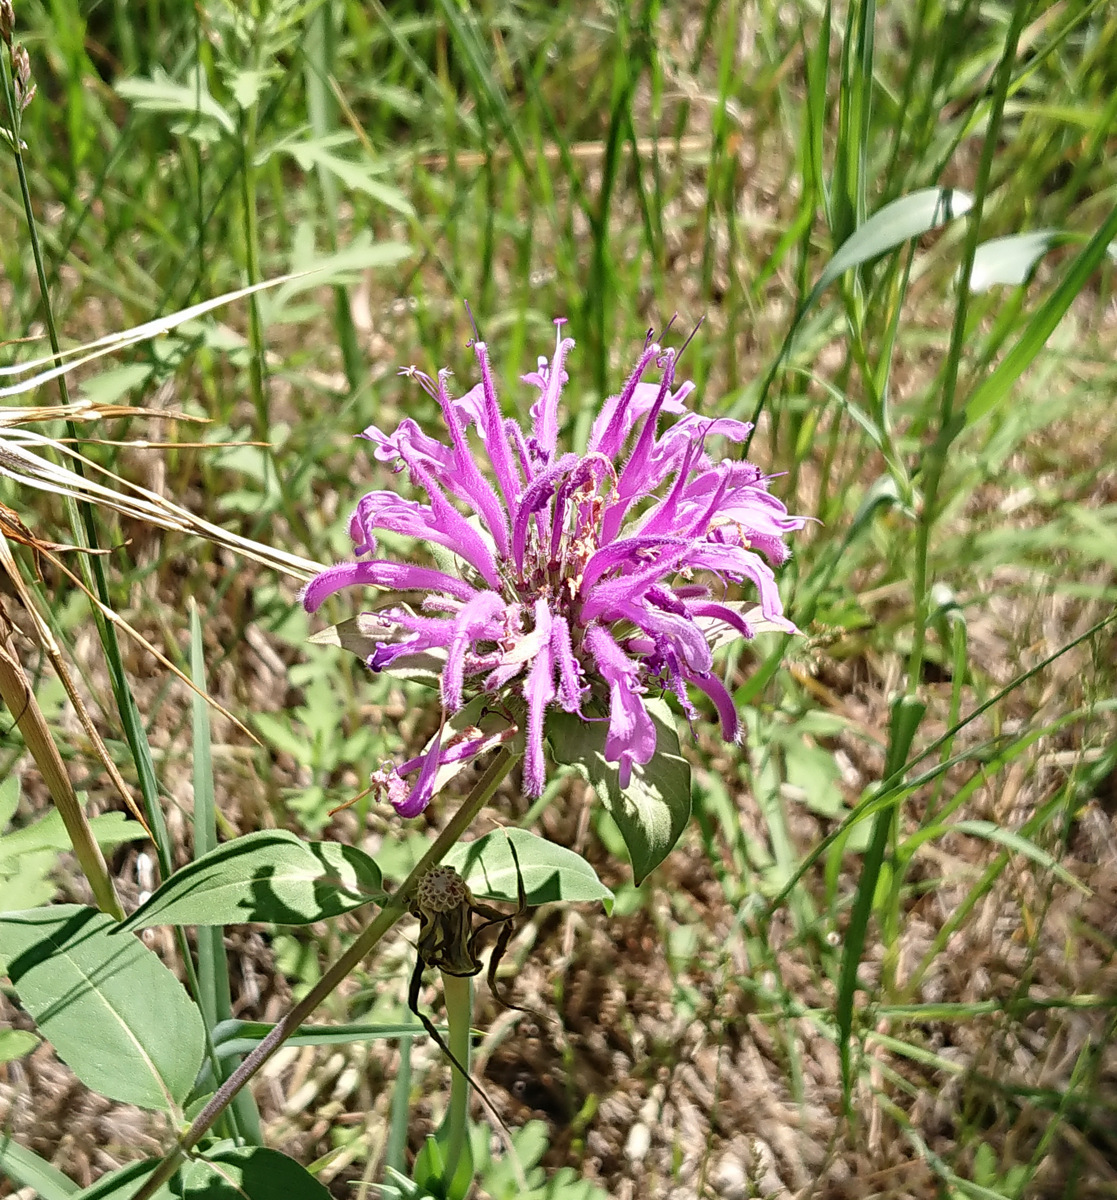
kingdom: Plantae
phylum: Tracheophyta
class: Magnoliopsida
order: Lamiales
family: Lamiaceae
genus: Monarda
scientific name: Monarda fistulosa
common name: Purple beebalm
